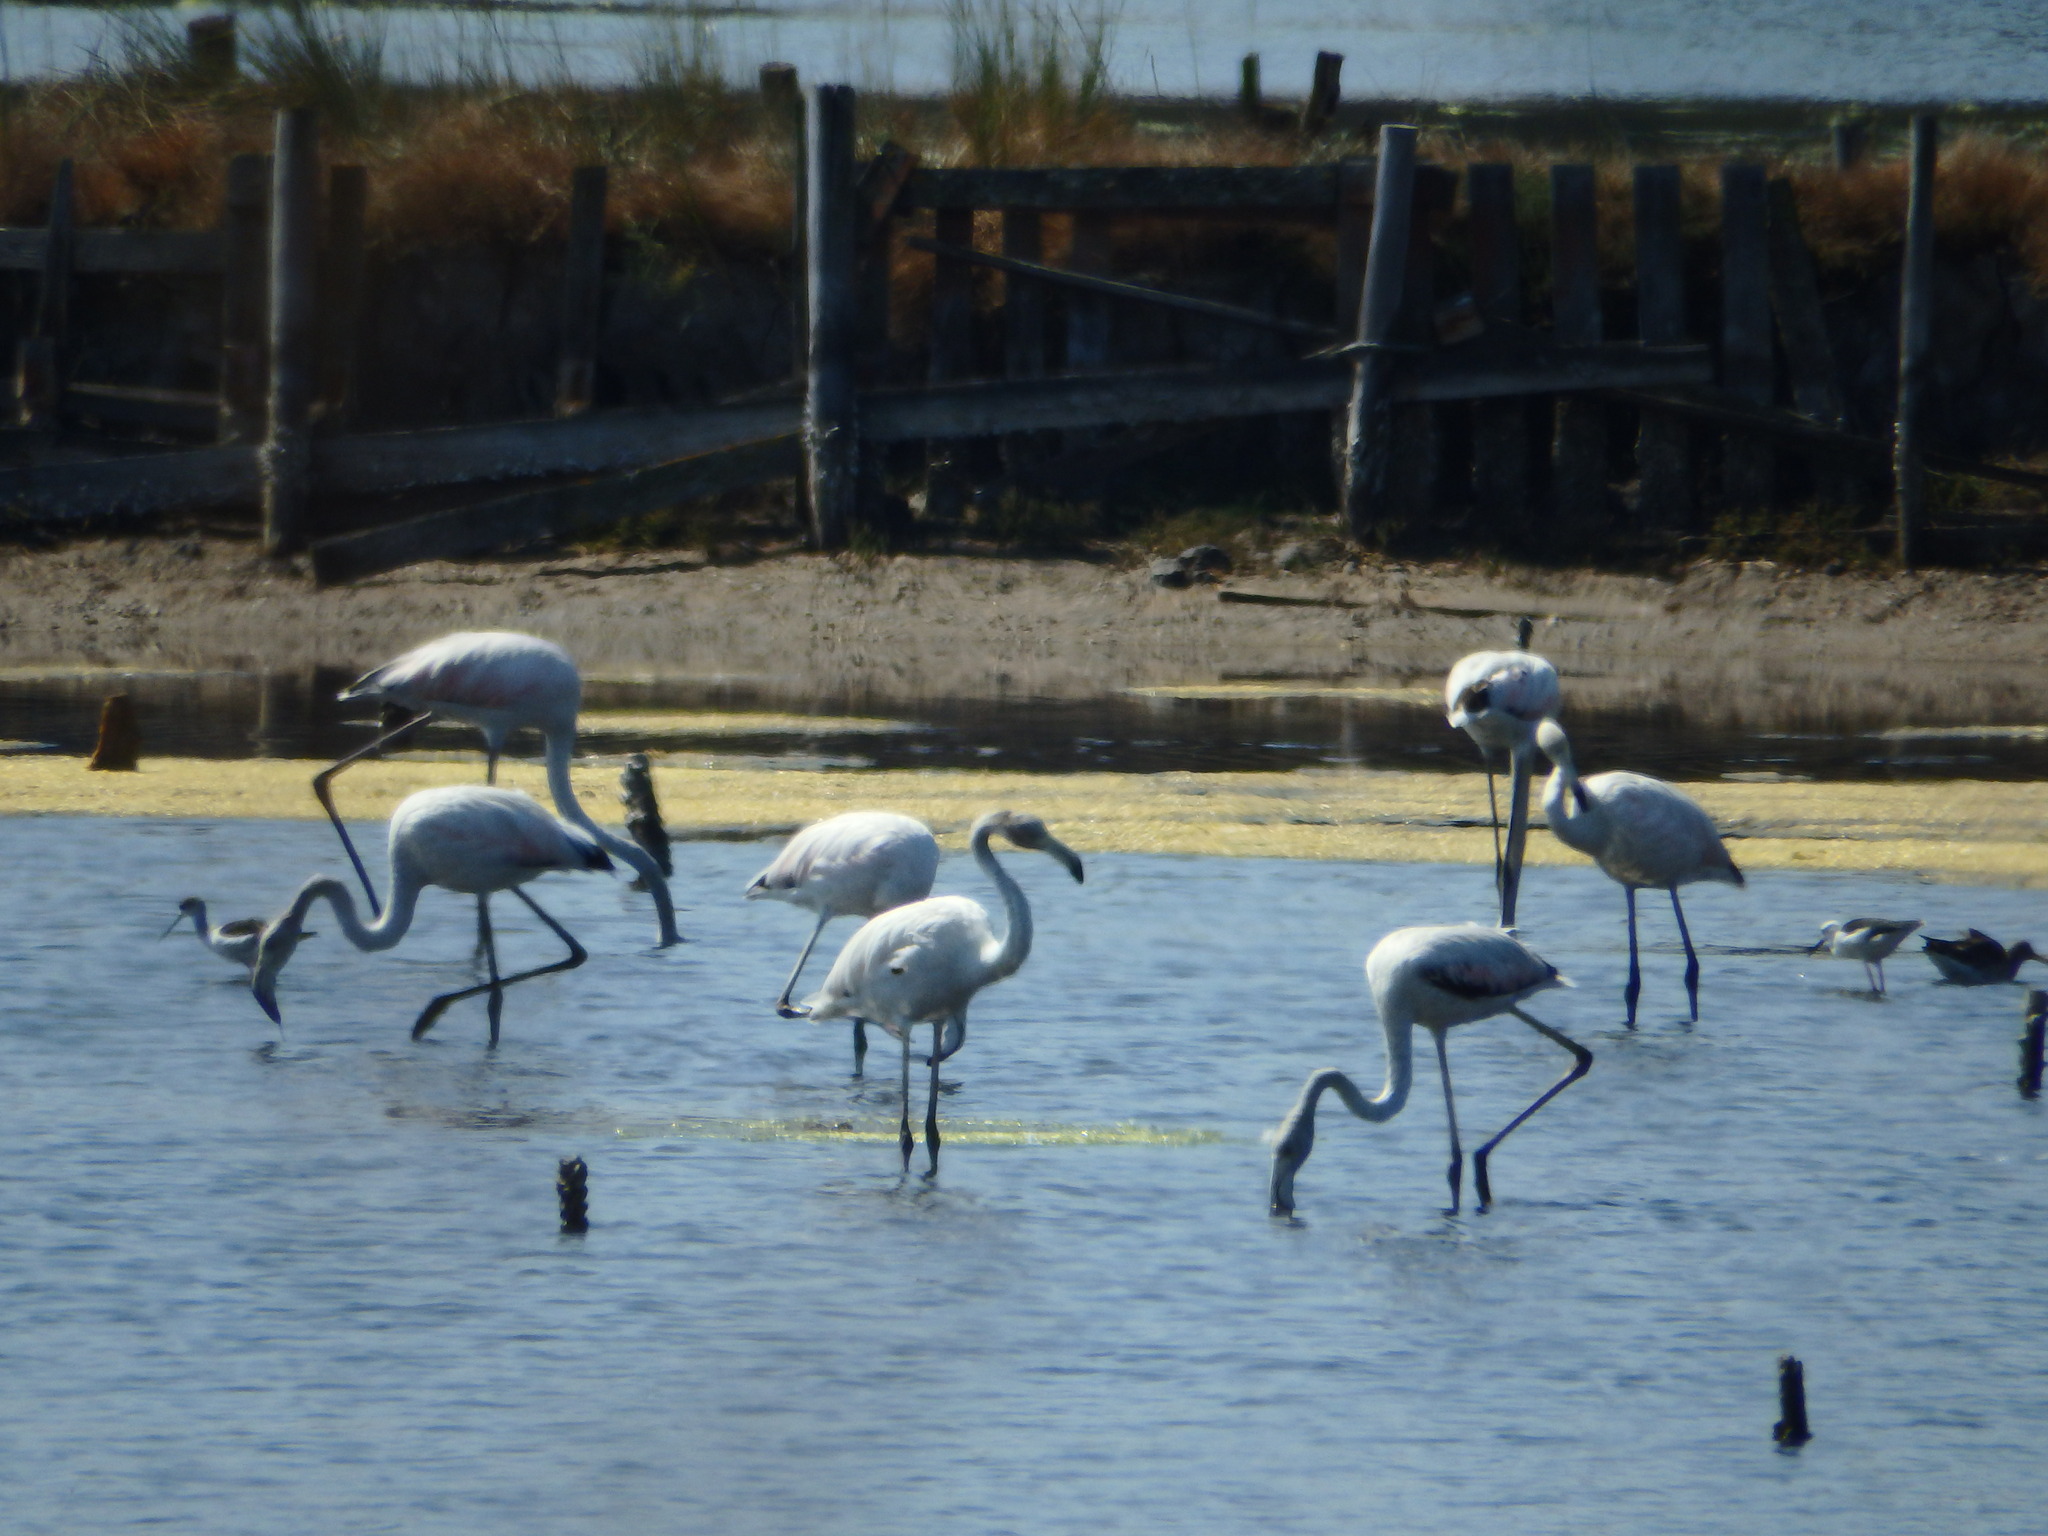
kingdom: Animalia
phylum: Chordata
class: Aves
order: Phoenicopteriformes
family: Phoenicopteridae
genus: Phoenicopterus
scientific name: Phoenicopterus roseus
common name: Greater flamingo
